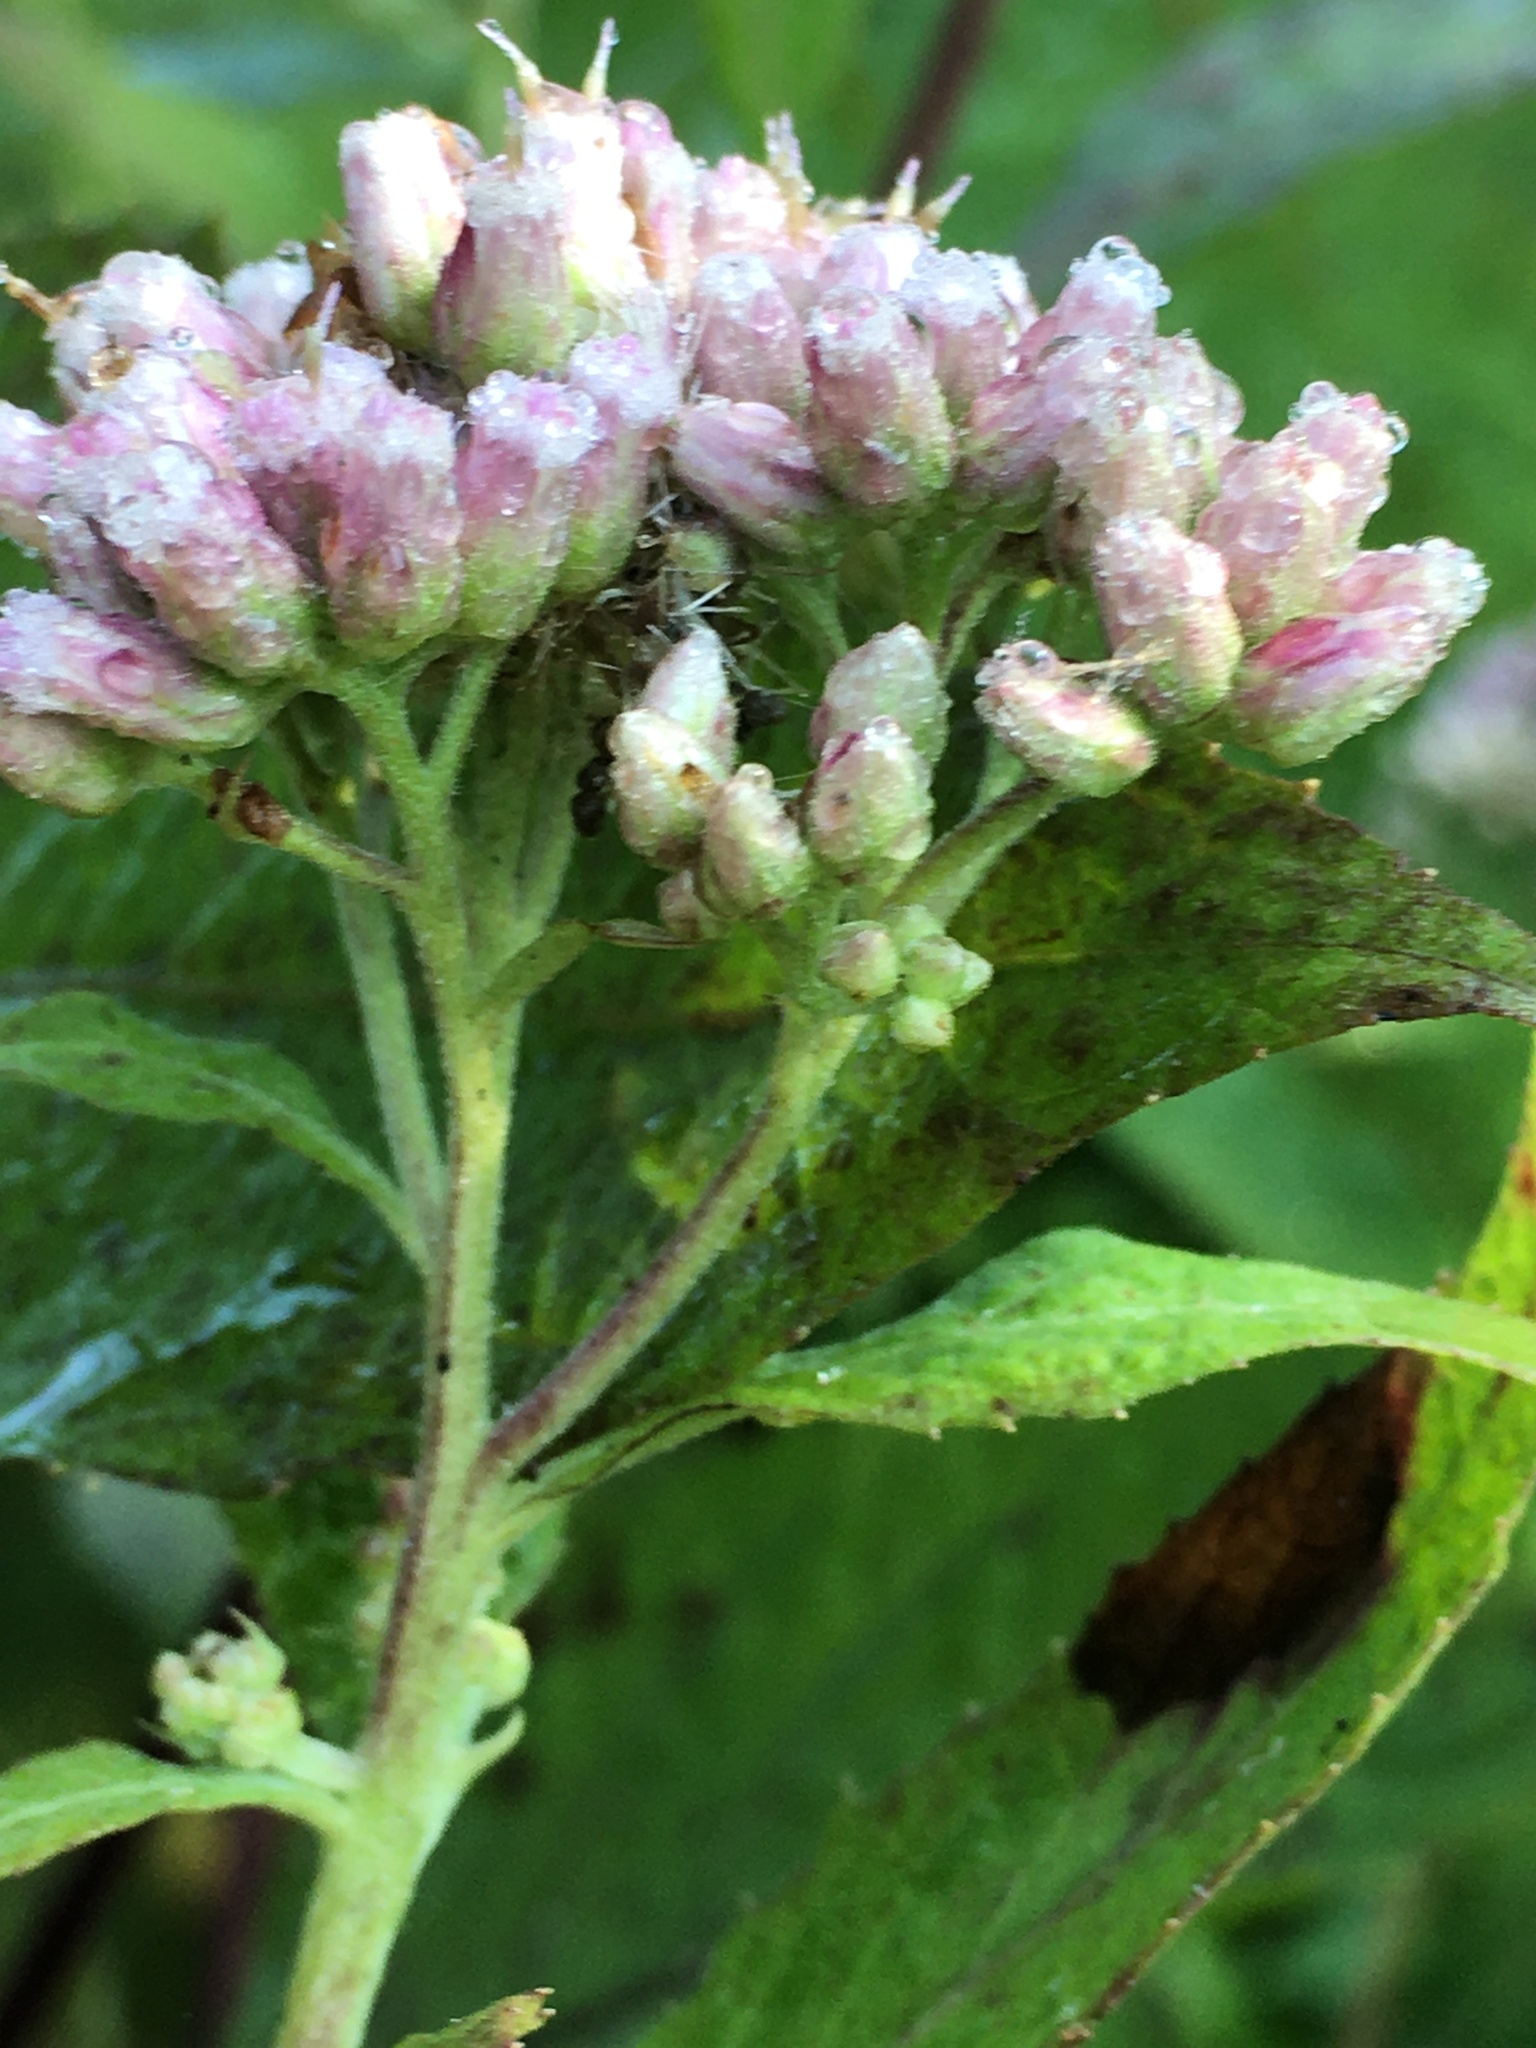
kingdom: Plantae
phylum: Tracheophyta
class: Magnoliopsida
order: Asterales
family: Asteraceae
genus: Pluchea
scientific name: Pluchea camphorata
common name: Camphor pluchea
